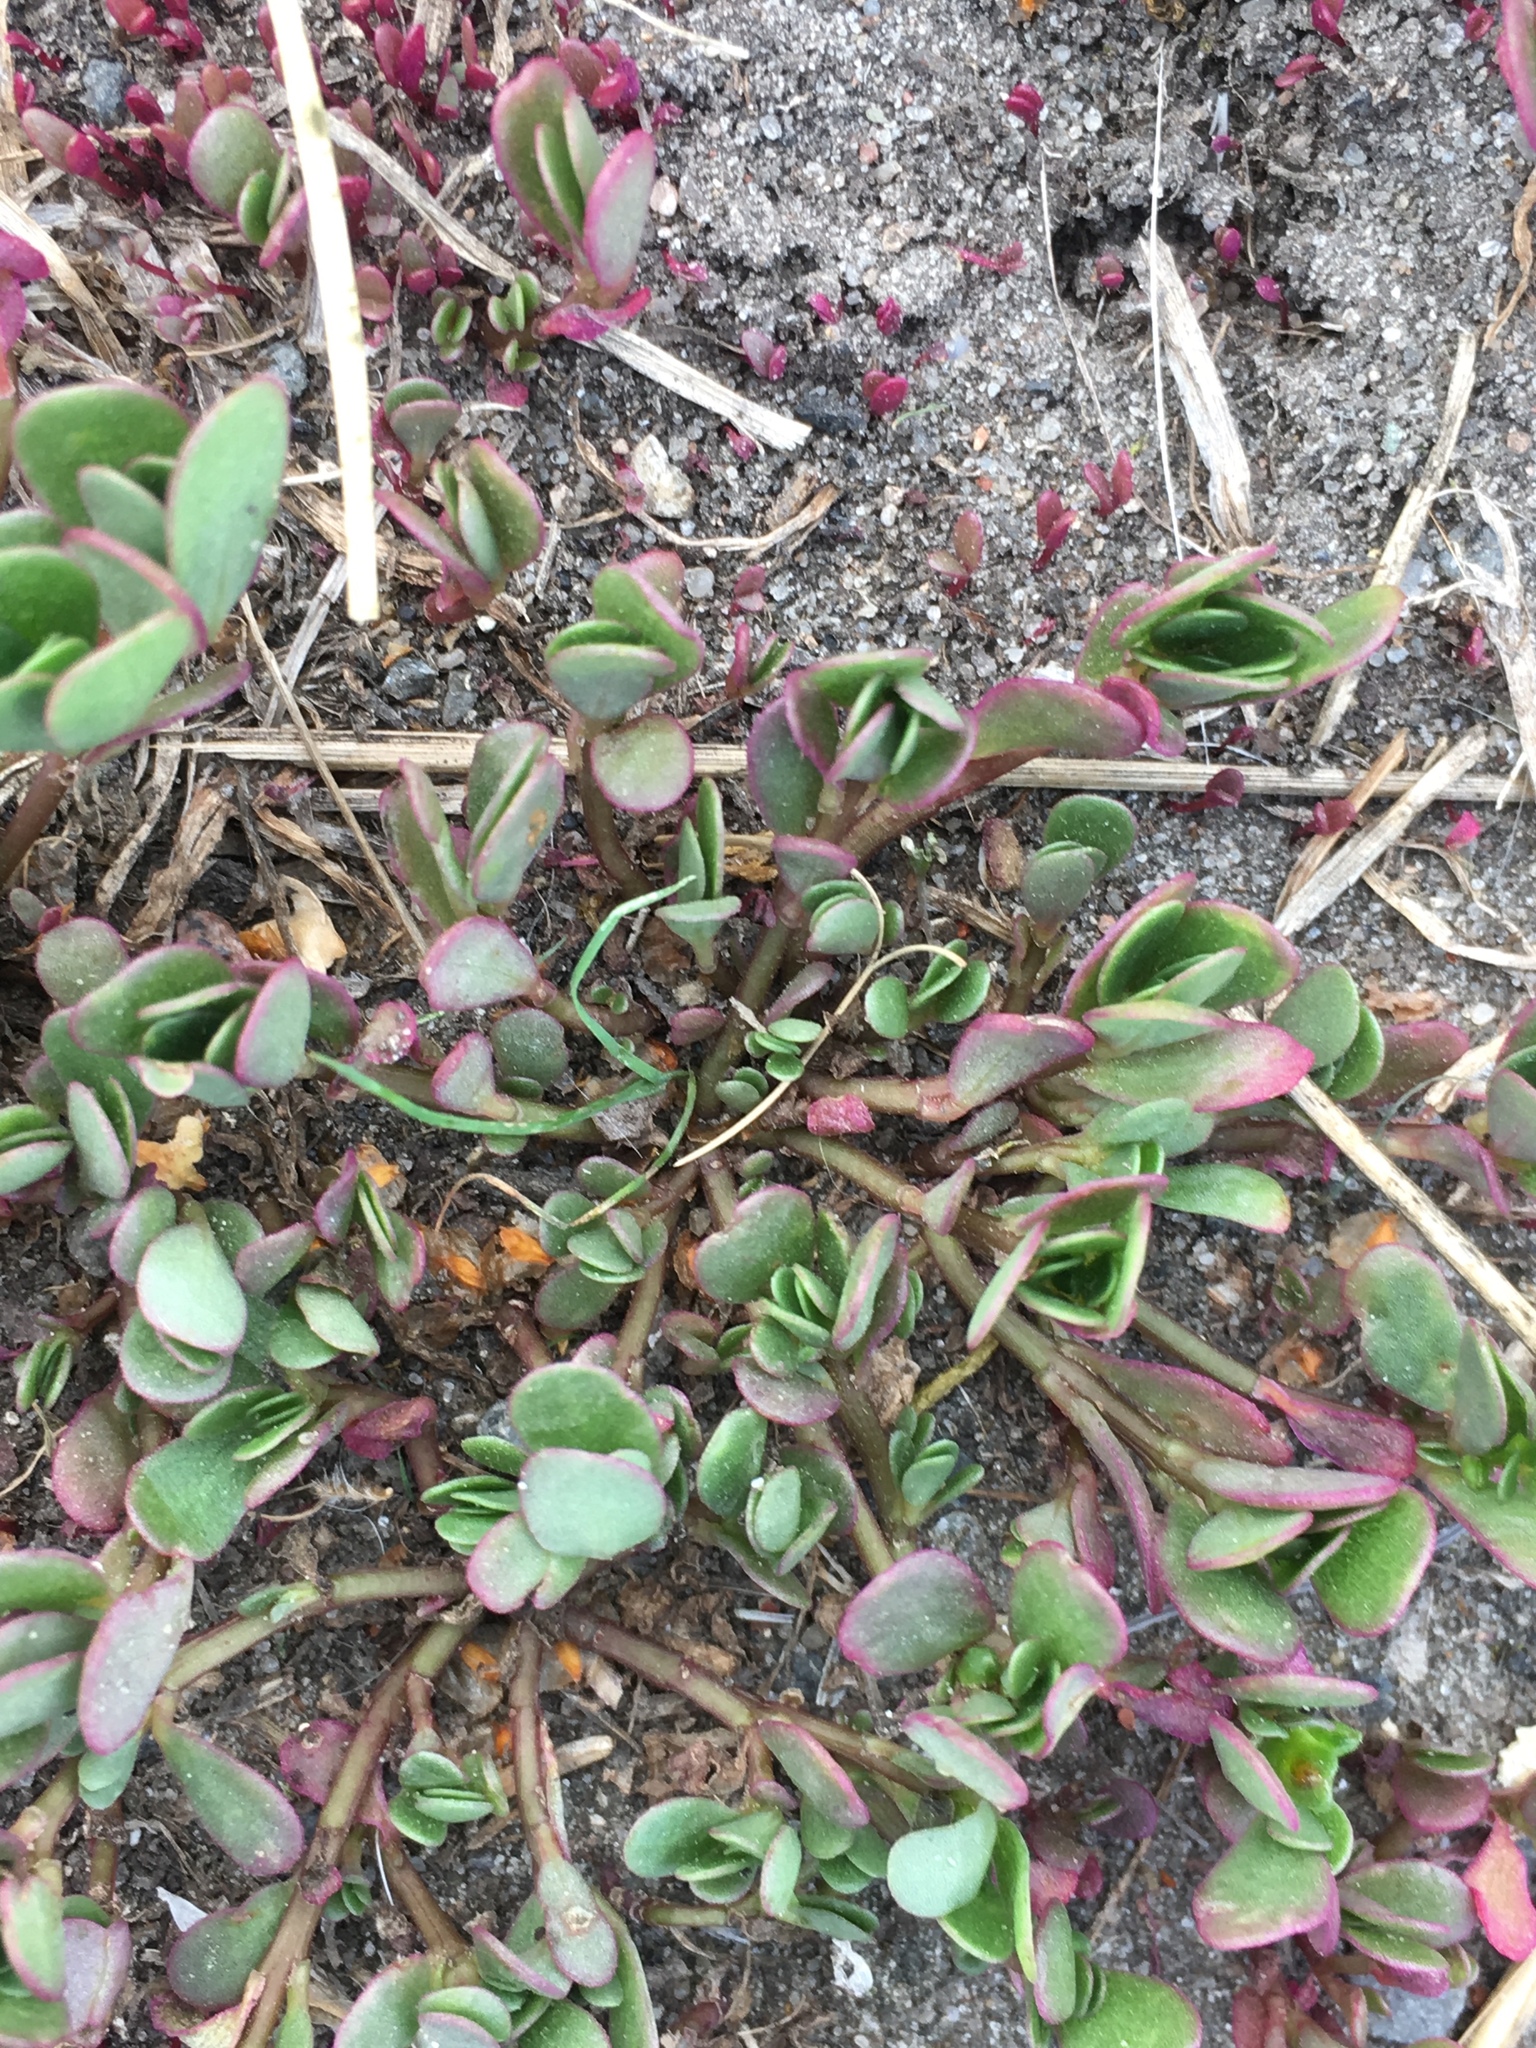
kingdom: Plantae
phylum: Tracheophyta
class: Magnoliopsida
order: Caryophyllales
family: Portulacaceae
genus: Portulaca
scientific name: Portulaca oleracea
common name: Common purslane
